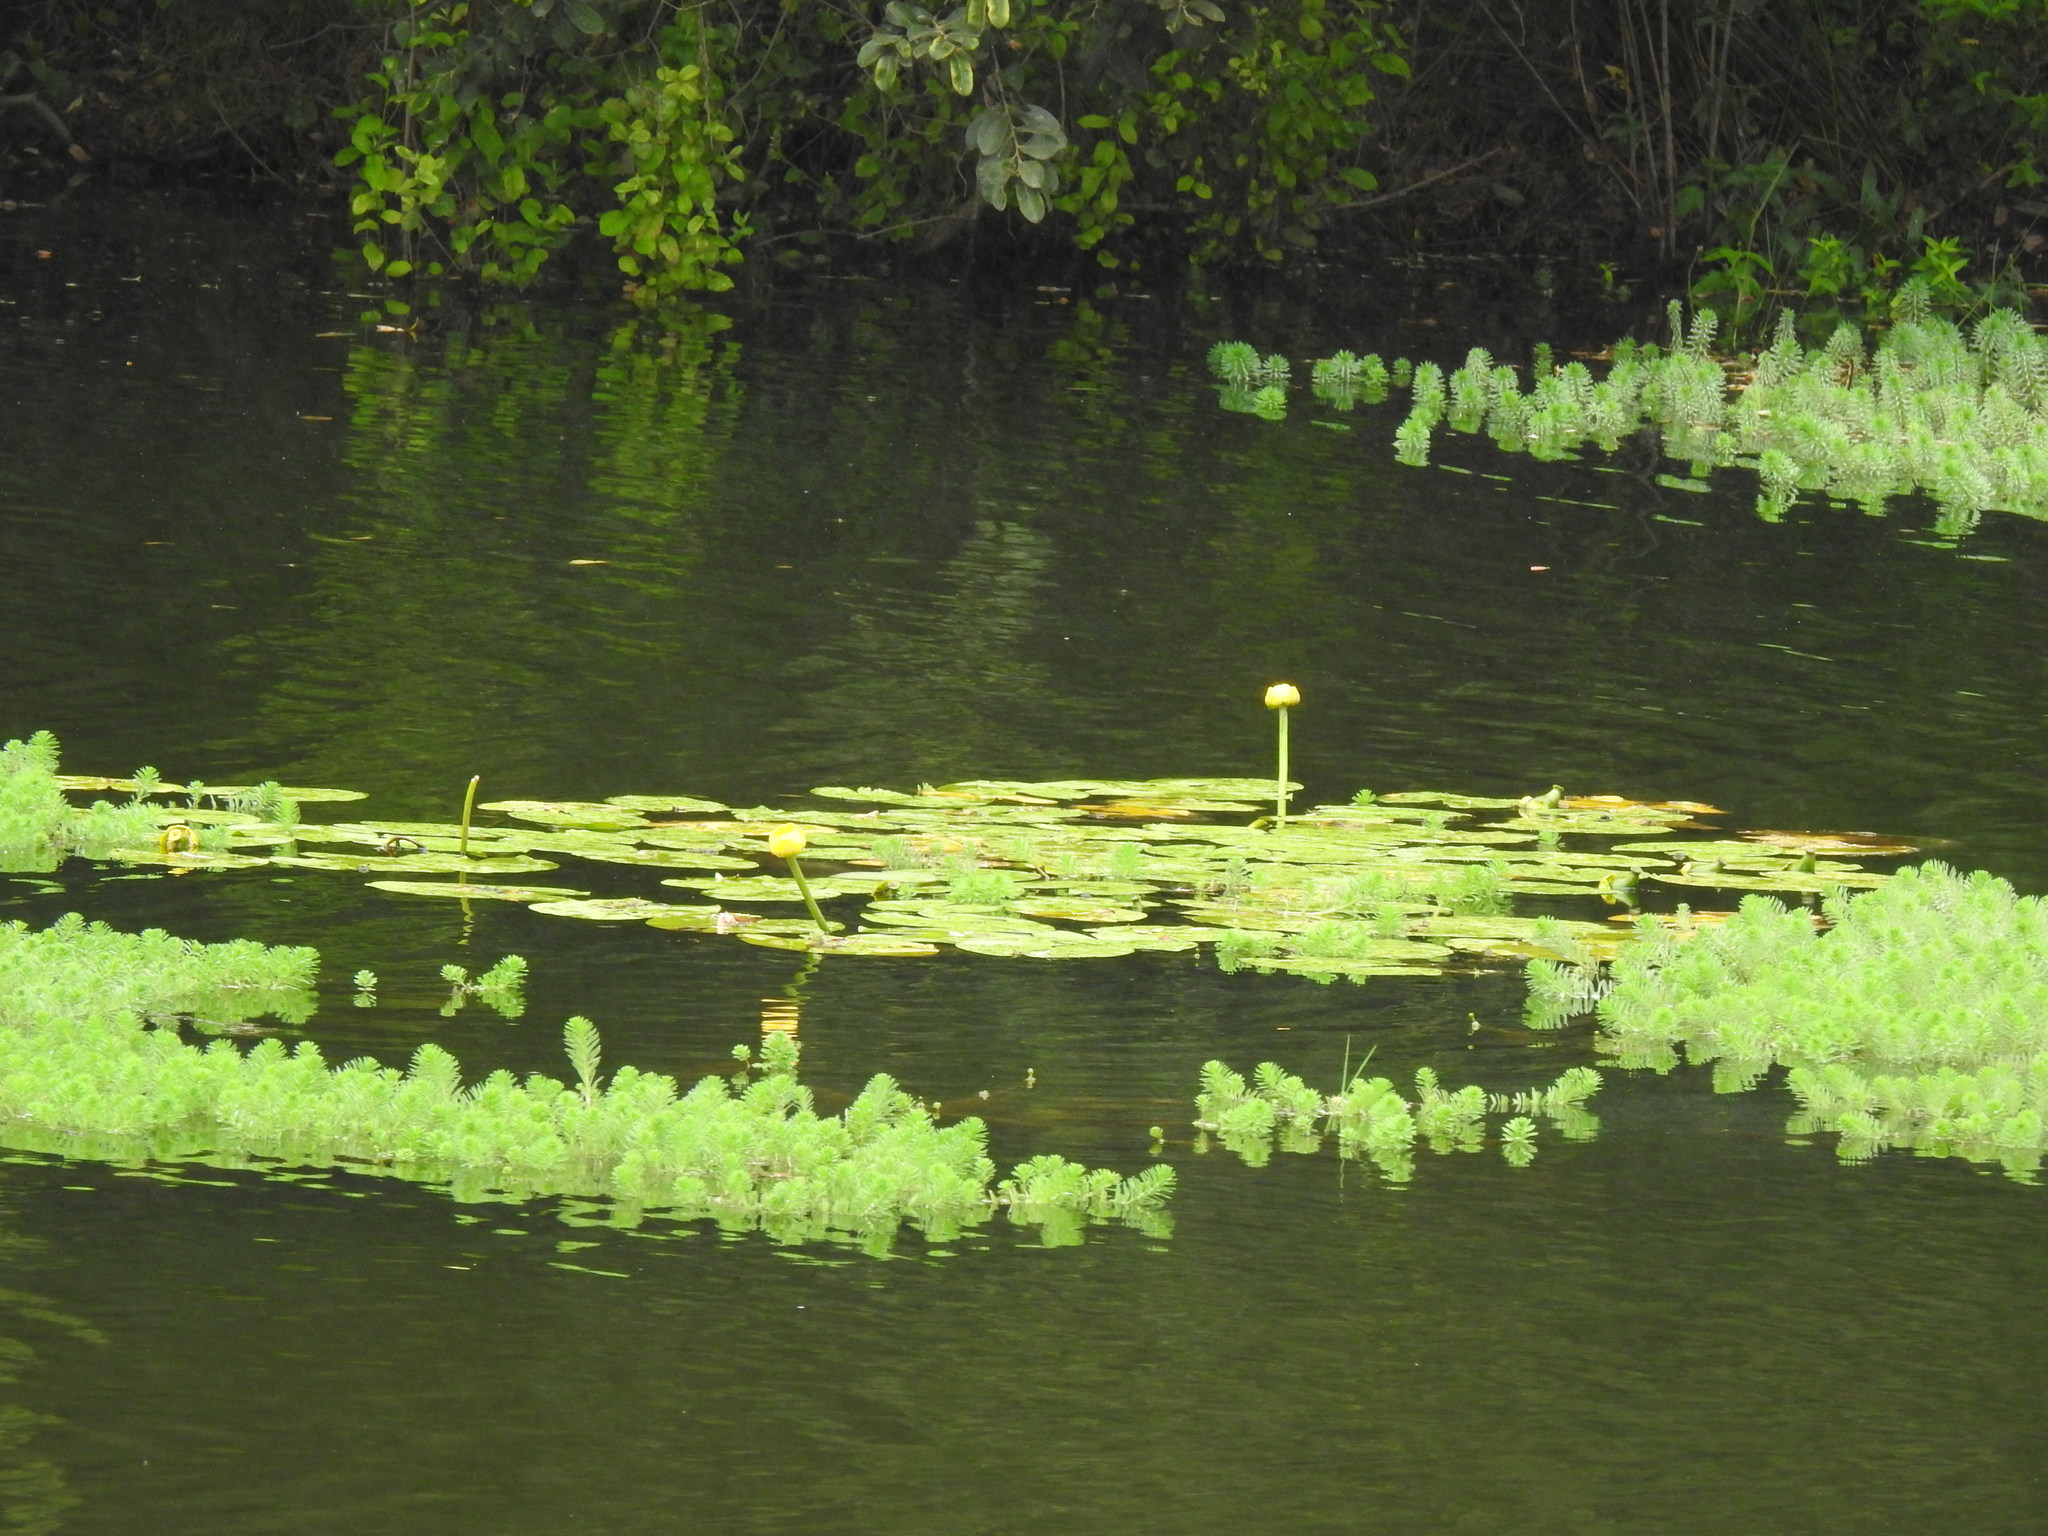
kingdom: Plantae
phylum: Tracheophyta
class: Magnoliopsida
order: Saxifragales
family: Haloragaceae
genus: Myriophyllum
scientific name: Myriophyllum aquaticum
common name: Parrot's feather
